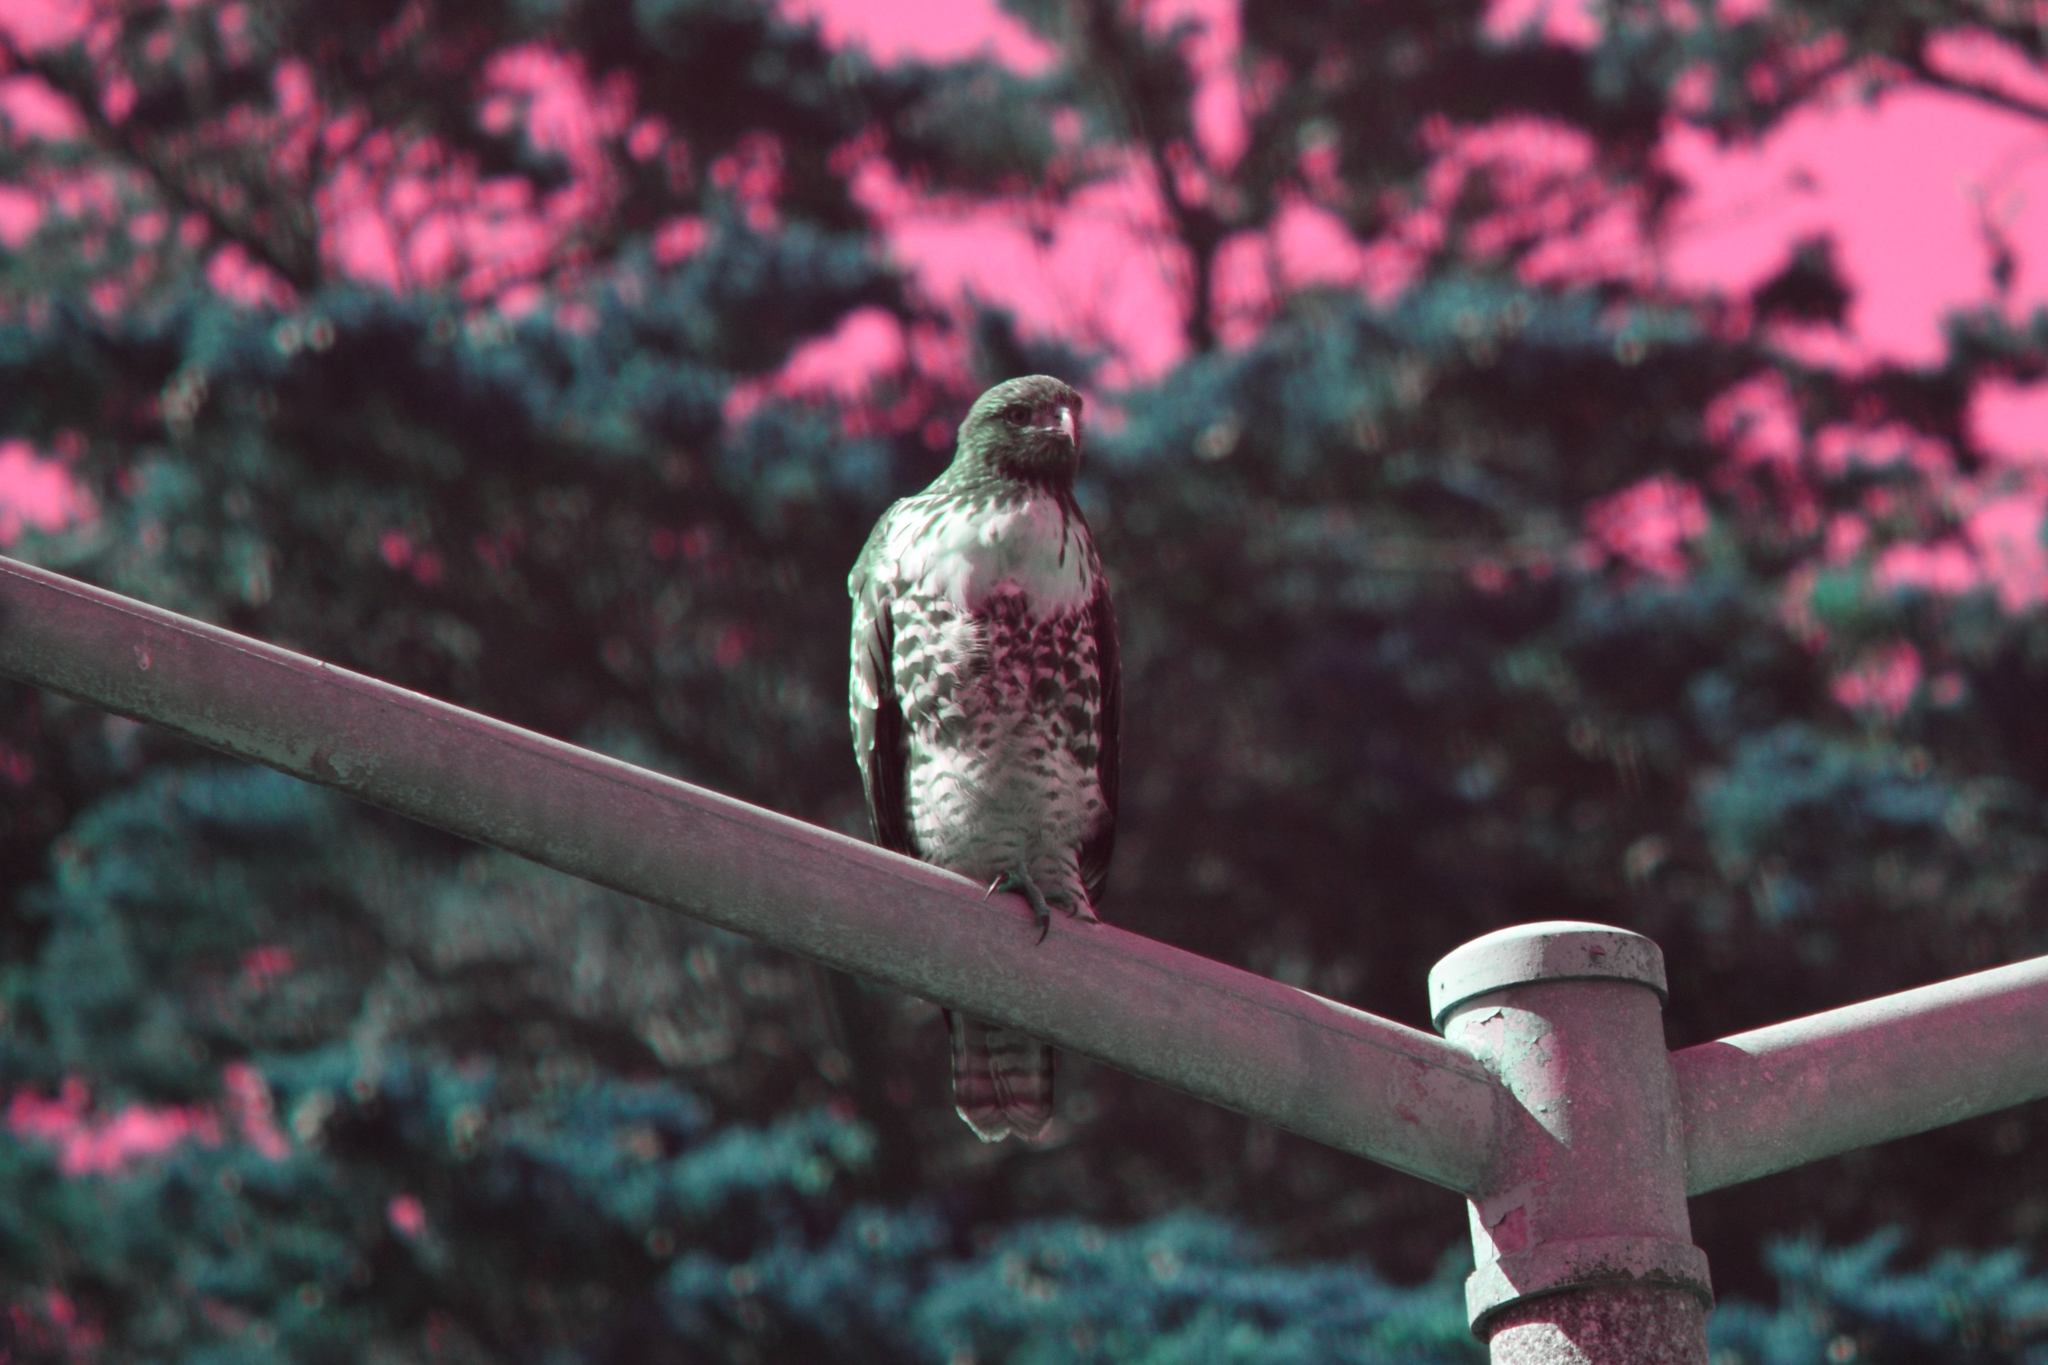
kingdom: Animalia
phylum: Chordata
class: Aves
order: Accipitriformes
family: Accipitridae
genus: Buteo
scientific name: Buteo jamaicensis
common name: Red-tailed hawk
